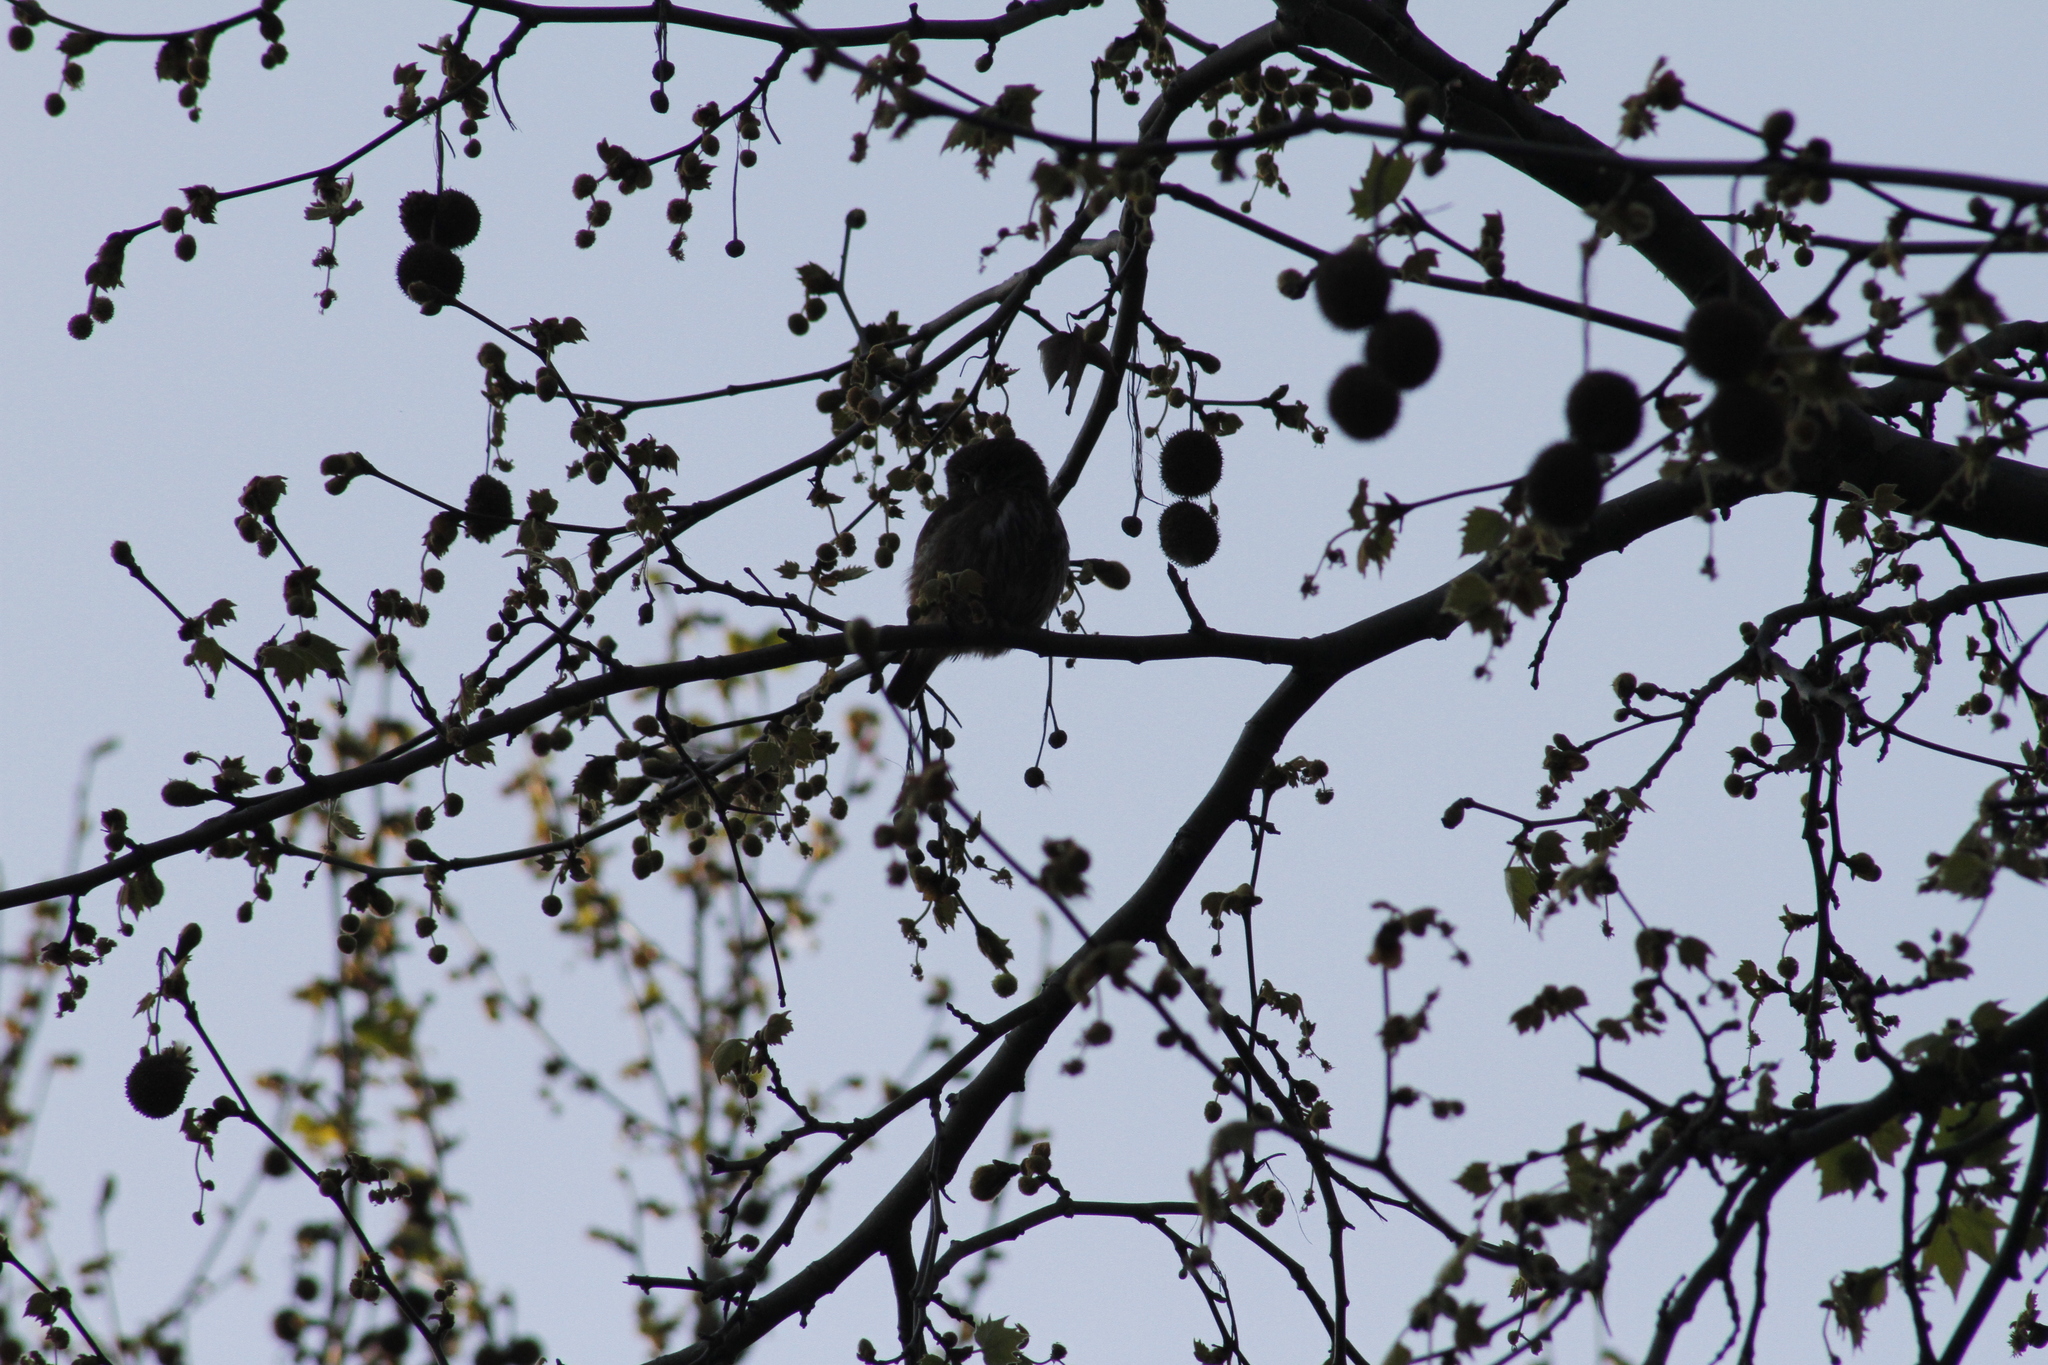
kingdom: Animalia
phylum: Chordata
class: Aves
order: Strigiformes
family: Strigidae
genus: Glaucidium
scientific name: Glaucidium brasilianum
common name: Ferruginous pygmy-owl
